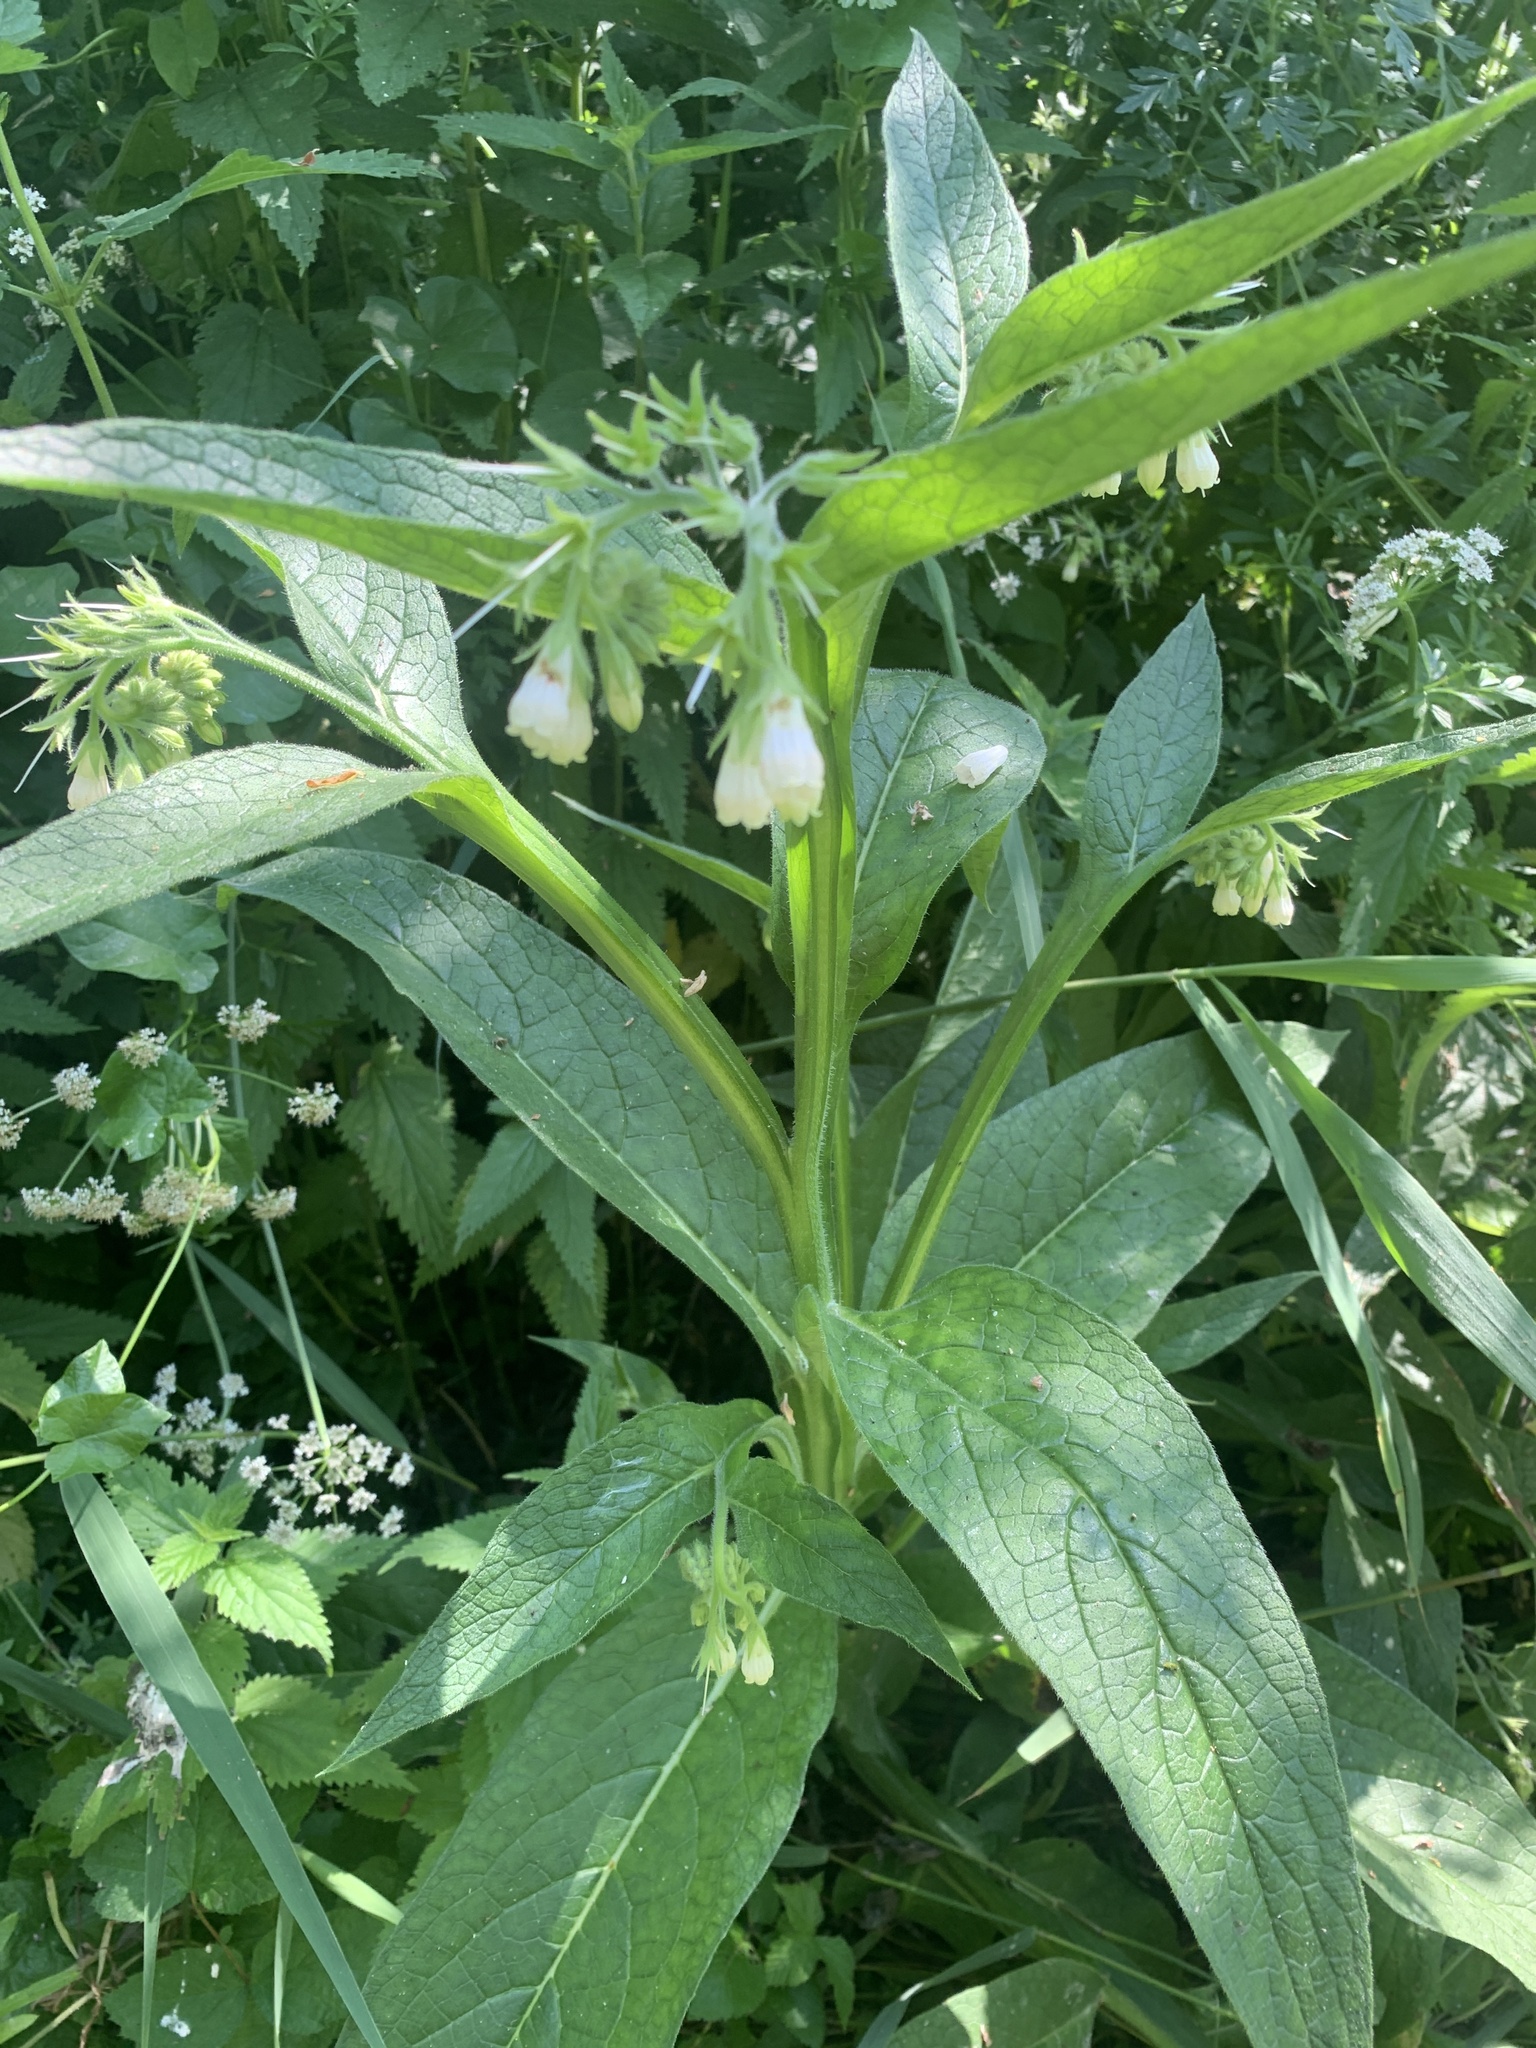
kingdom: Plantae
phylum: Tracheophyta
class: Magnoliopsida
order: Boraginales
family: Boraginaceae
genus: Symphytum
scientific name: Symphytum grandiflorum
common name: Creeping comfrey
